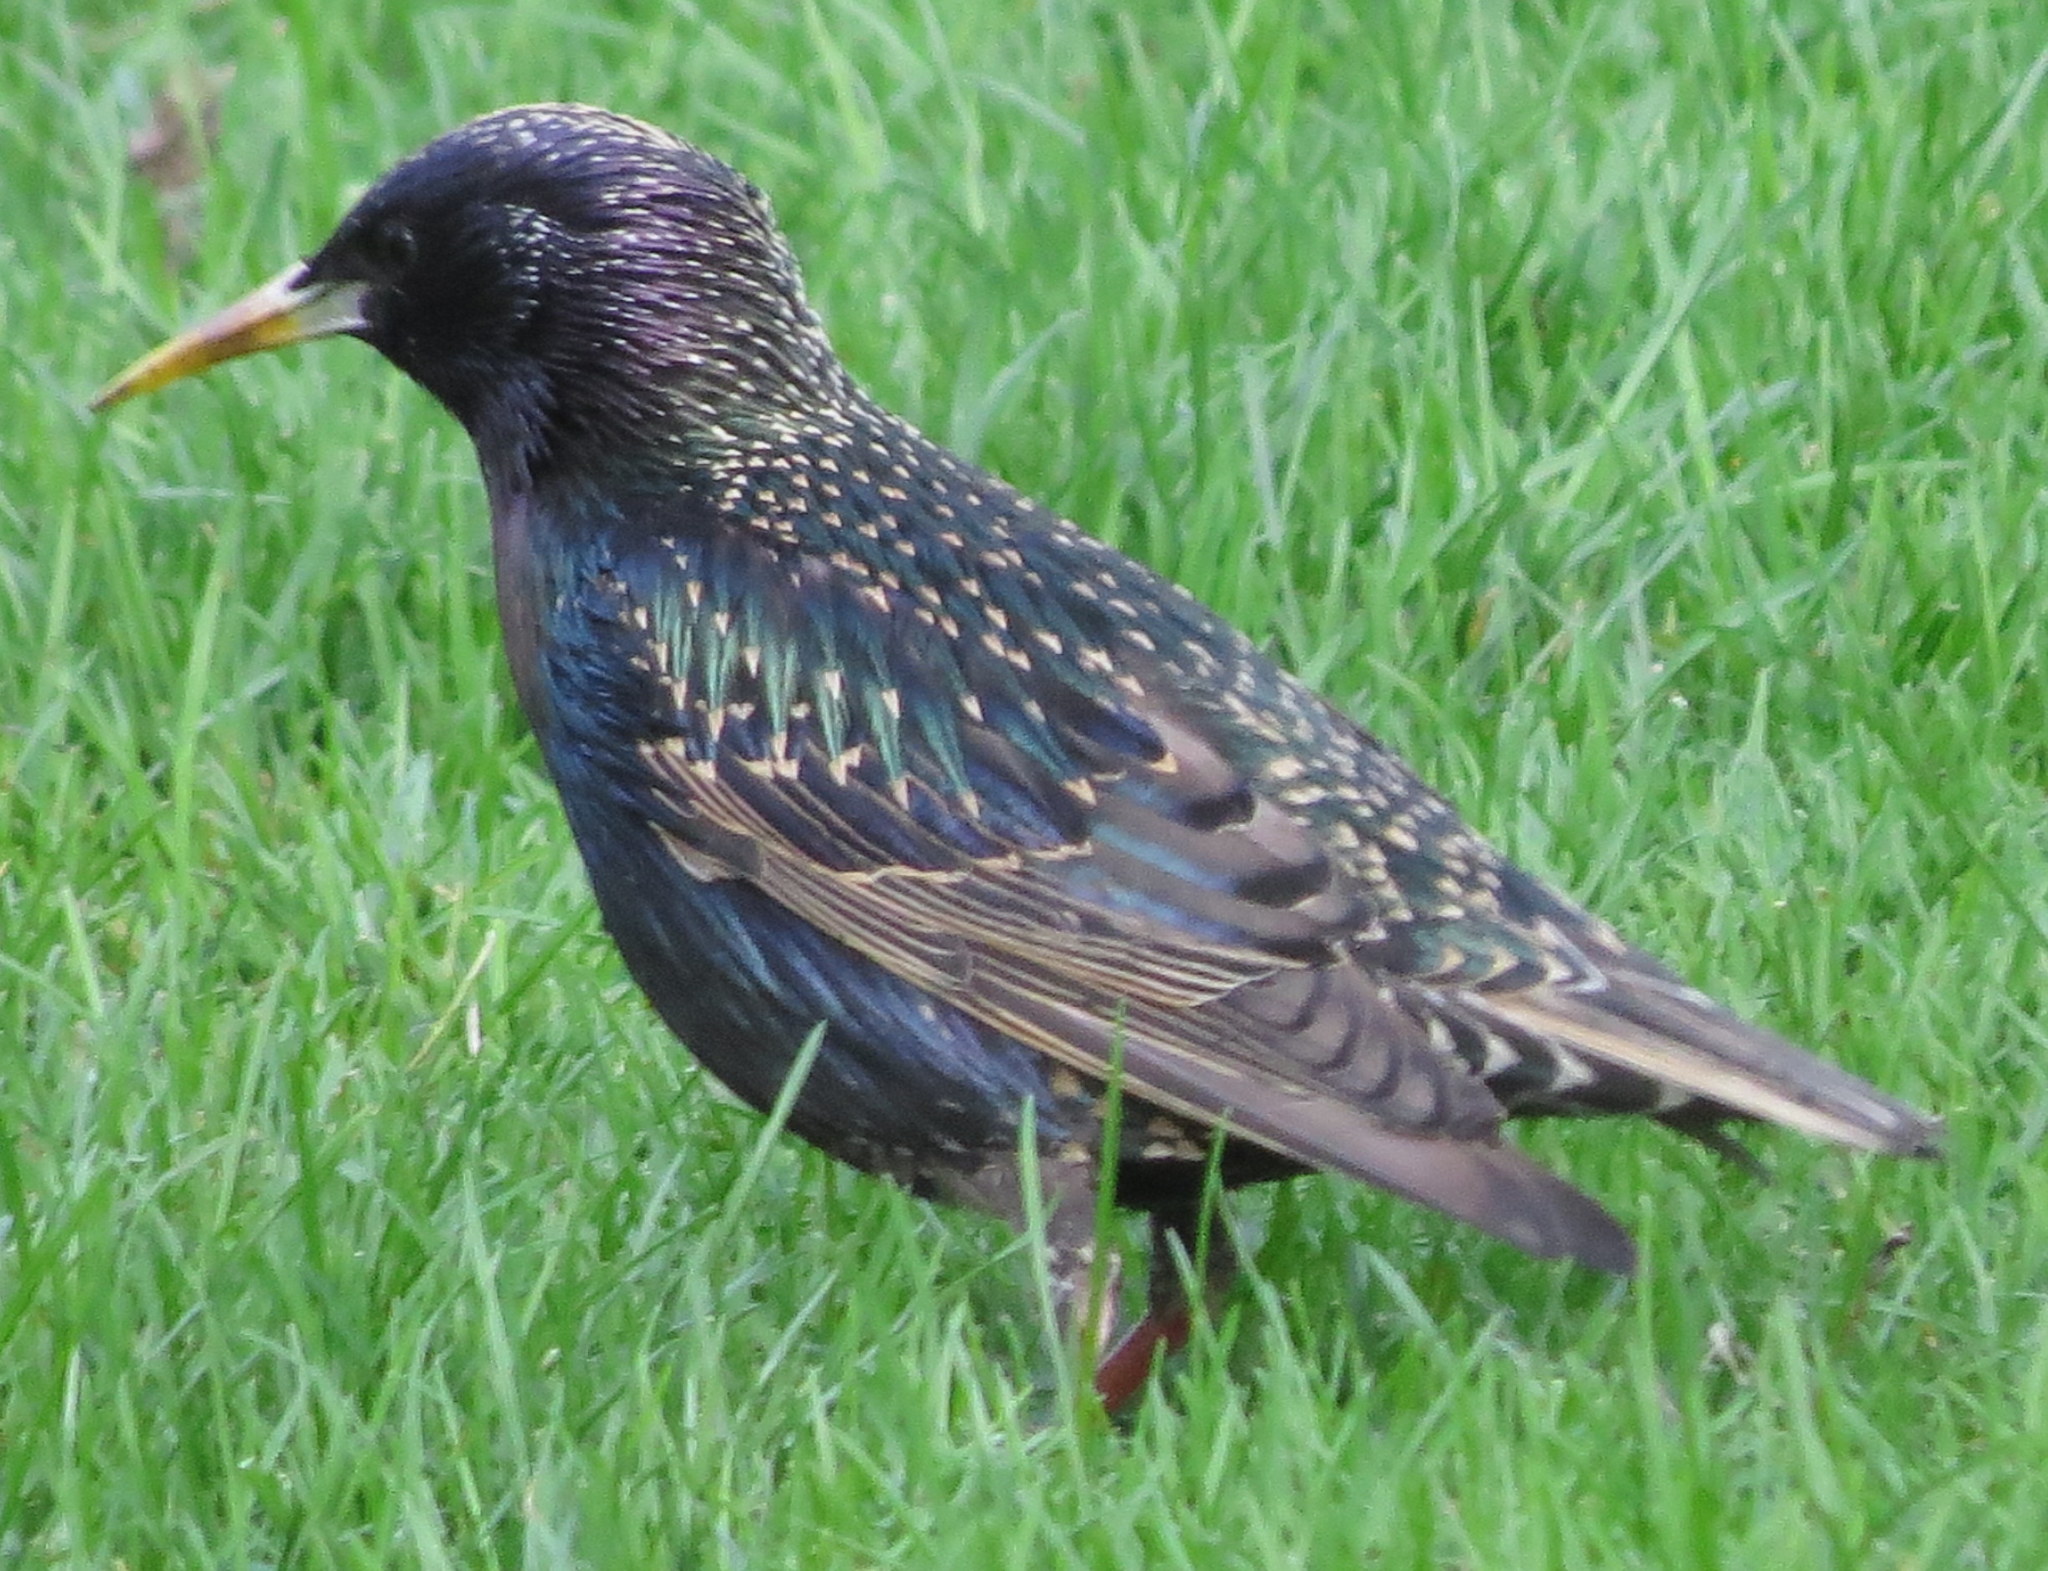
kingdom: Animalia
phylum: Chordata
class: Aves
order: Passeriformes
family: Sturnidae
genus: Sturnus
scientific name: Sturnus vulgaris
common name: Common starling
